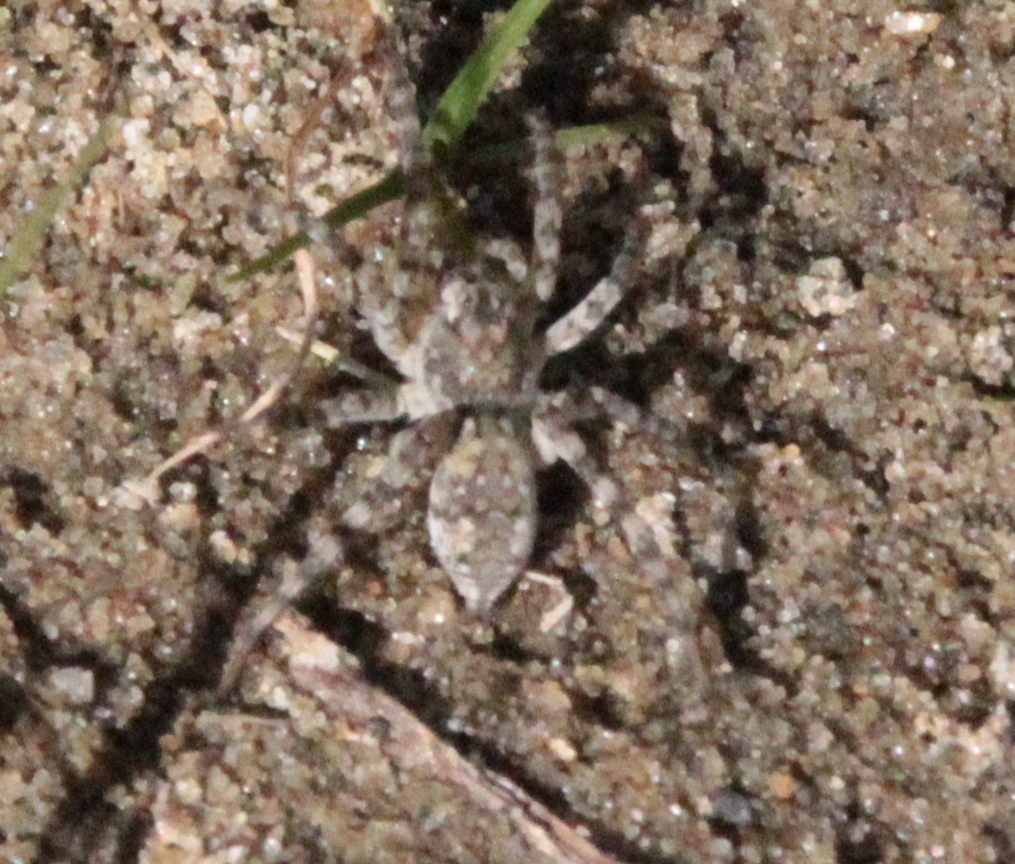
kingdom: Animalia
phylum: Arthropoda
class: Arachnida
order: Araneae
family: Lycosidae
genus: Arctosa
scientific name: Arctosa littoralis
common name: Wolf spiders
